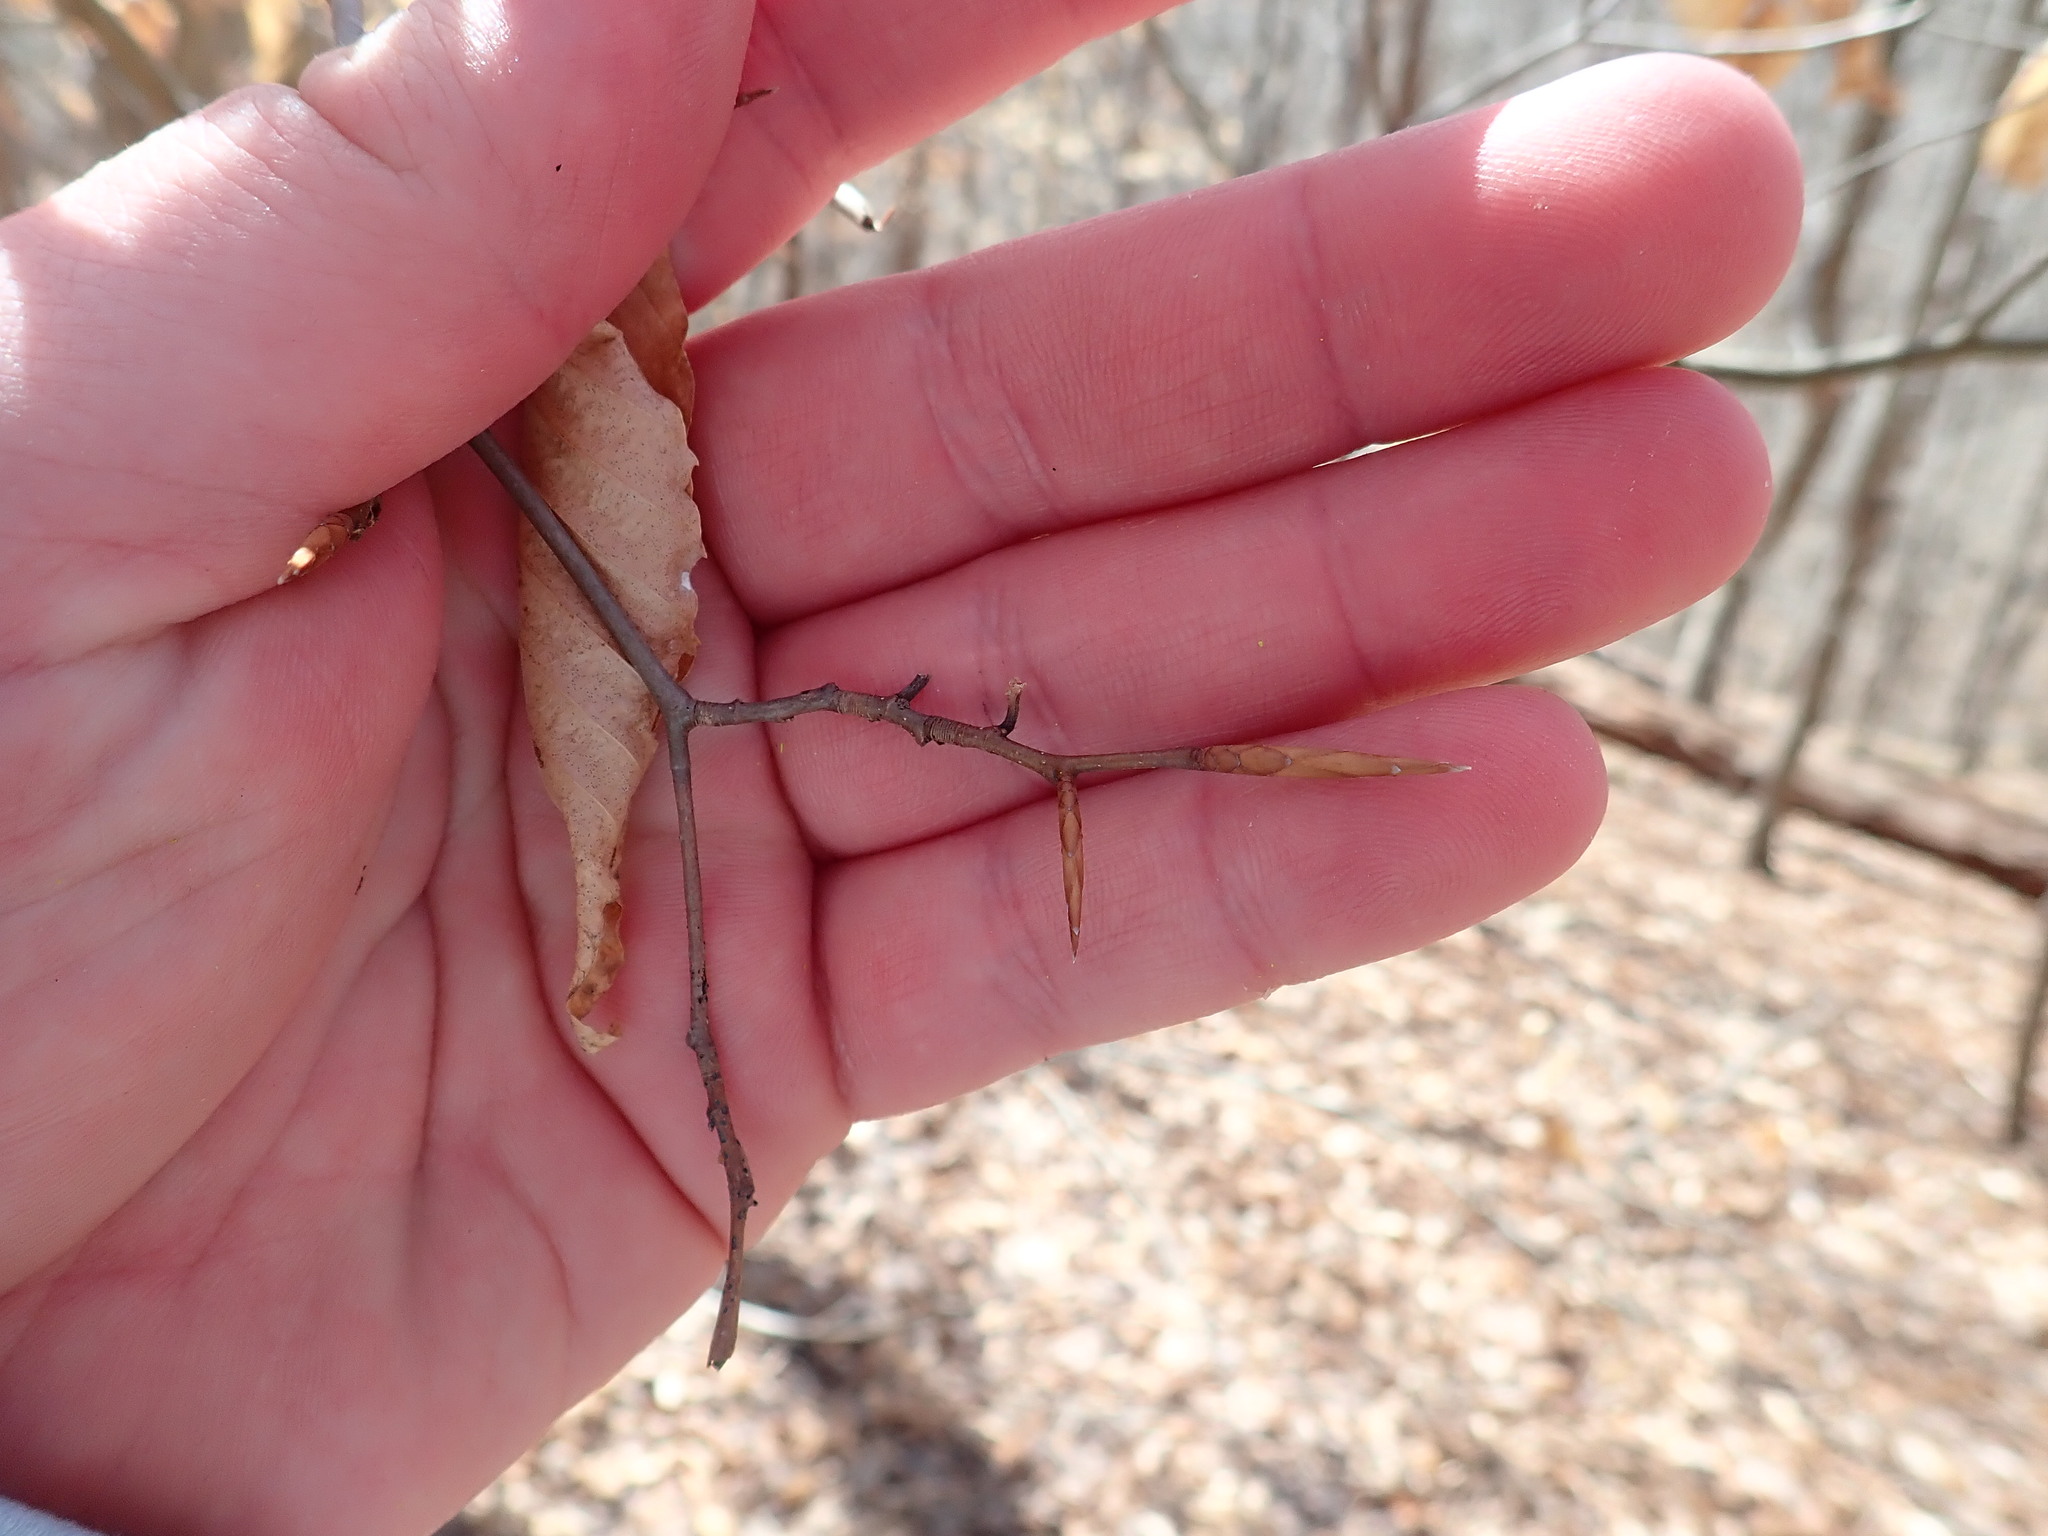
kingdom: Plantae
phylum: Tracheophyta
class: Magnoliopsida
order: Fagales
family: Fagaceae
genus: Fagus
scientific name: Fagus grandifolia
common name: American beech
